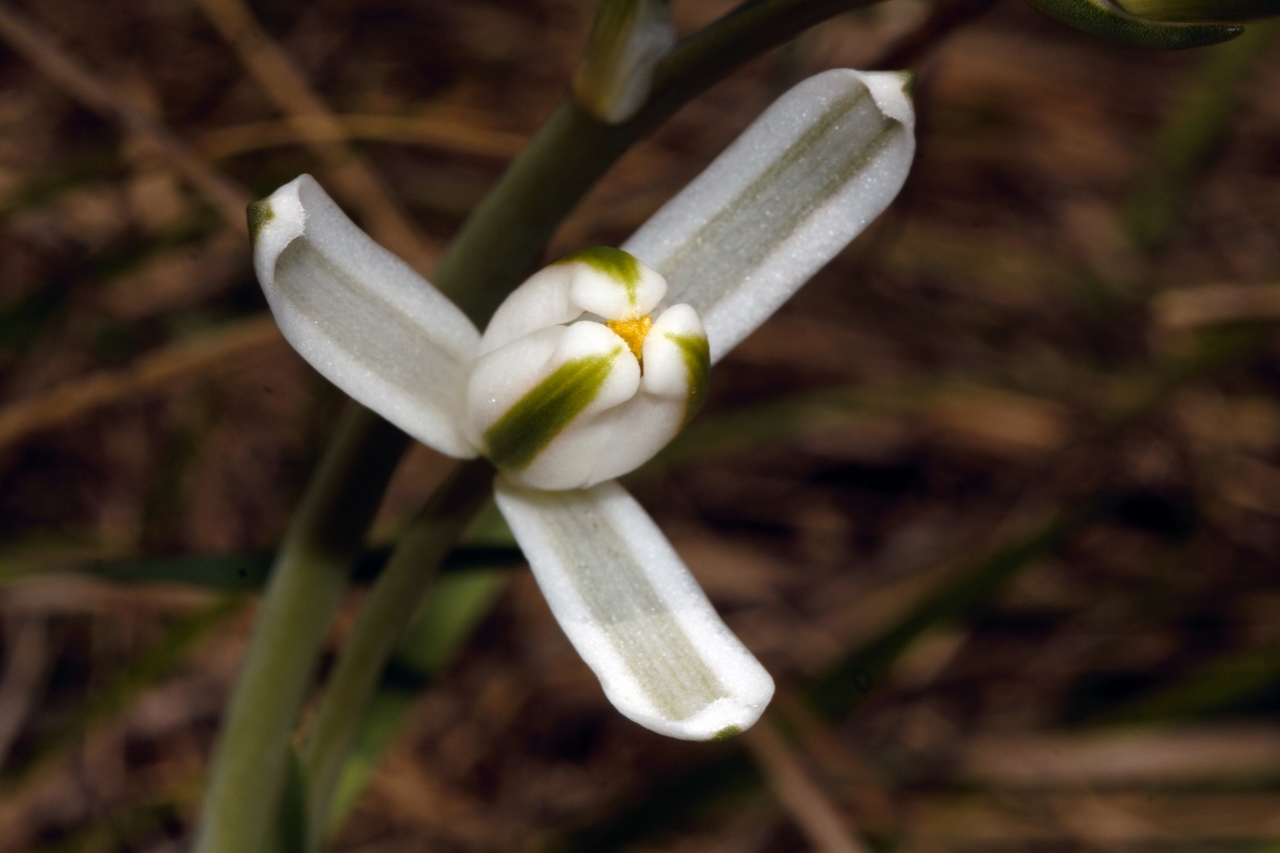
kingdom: Plantae
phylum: Tracheophyta
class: Liliopsida
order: Asparagales
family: Asparagaceae
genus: Albuca
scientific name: Albuca kirkii
